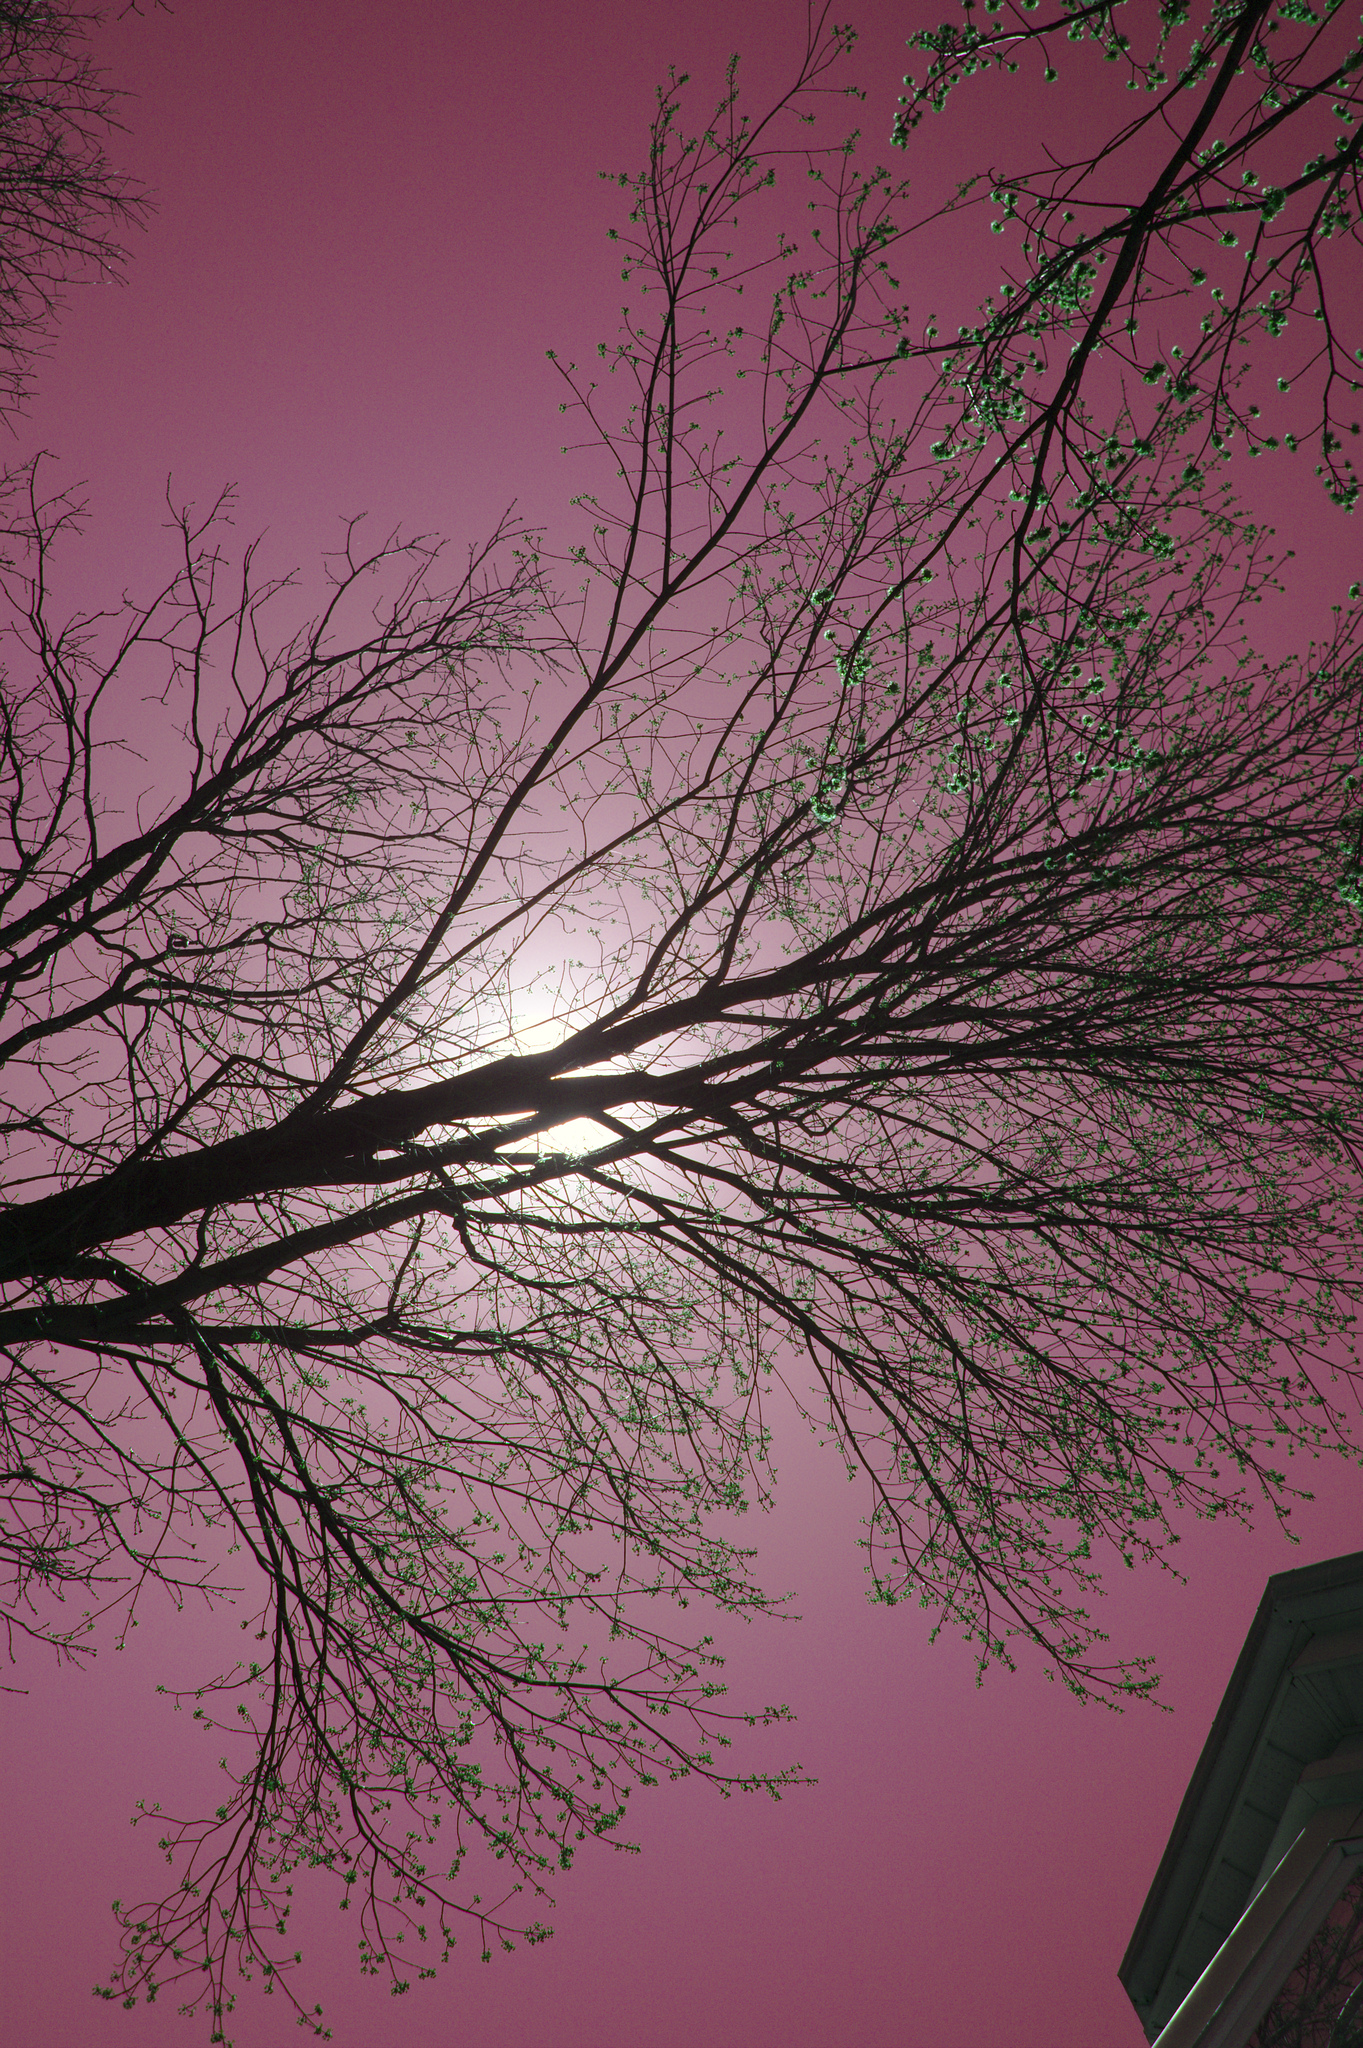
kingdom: Plantae
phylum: Tracheophyta
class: Magnoliopsida
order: Sapindales
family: Sapindaceae
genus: Acer
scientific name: Acer rubrum
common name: Red maple
